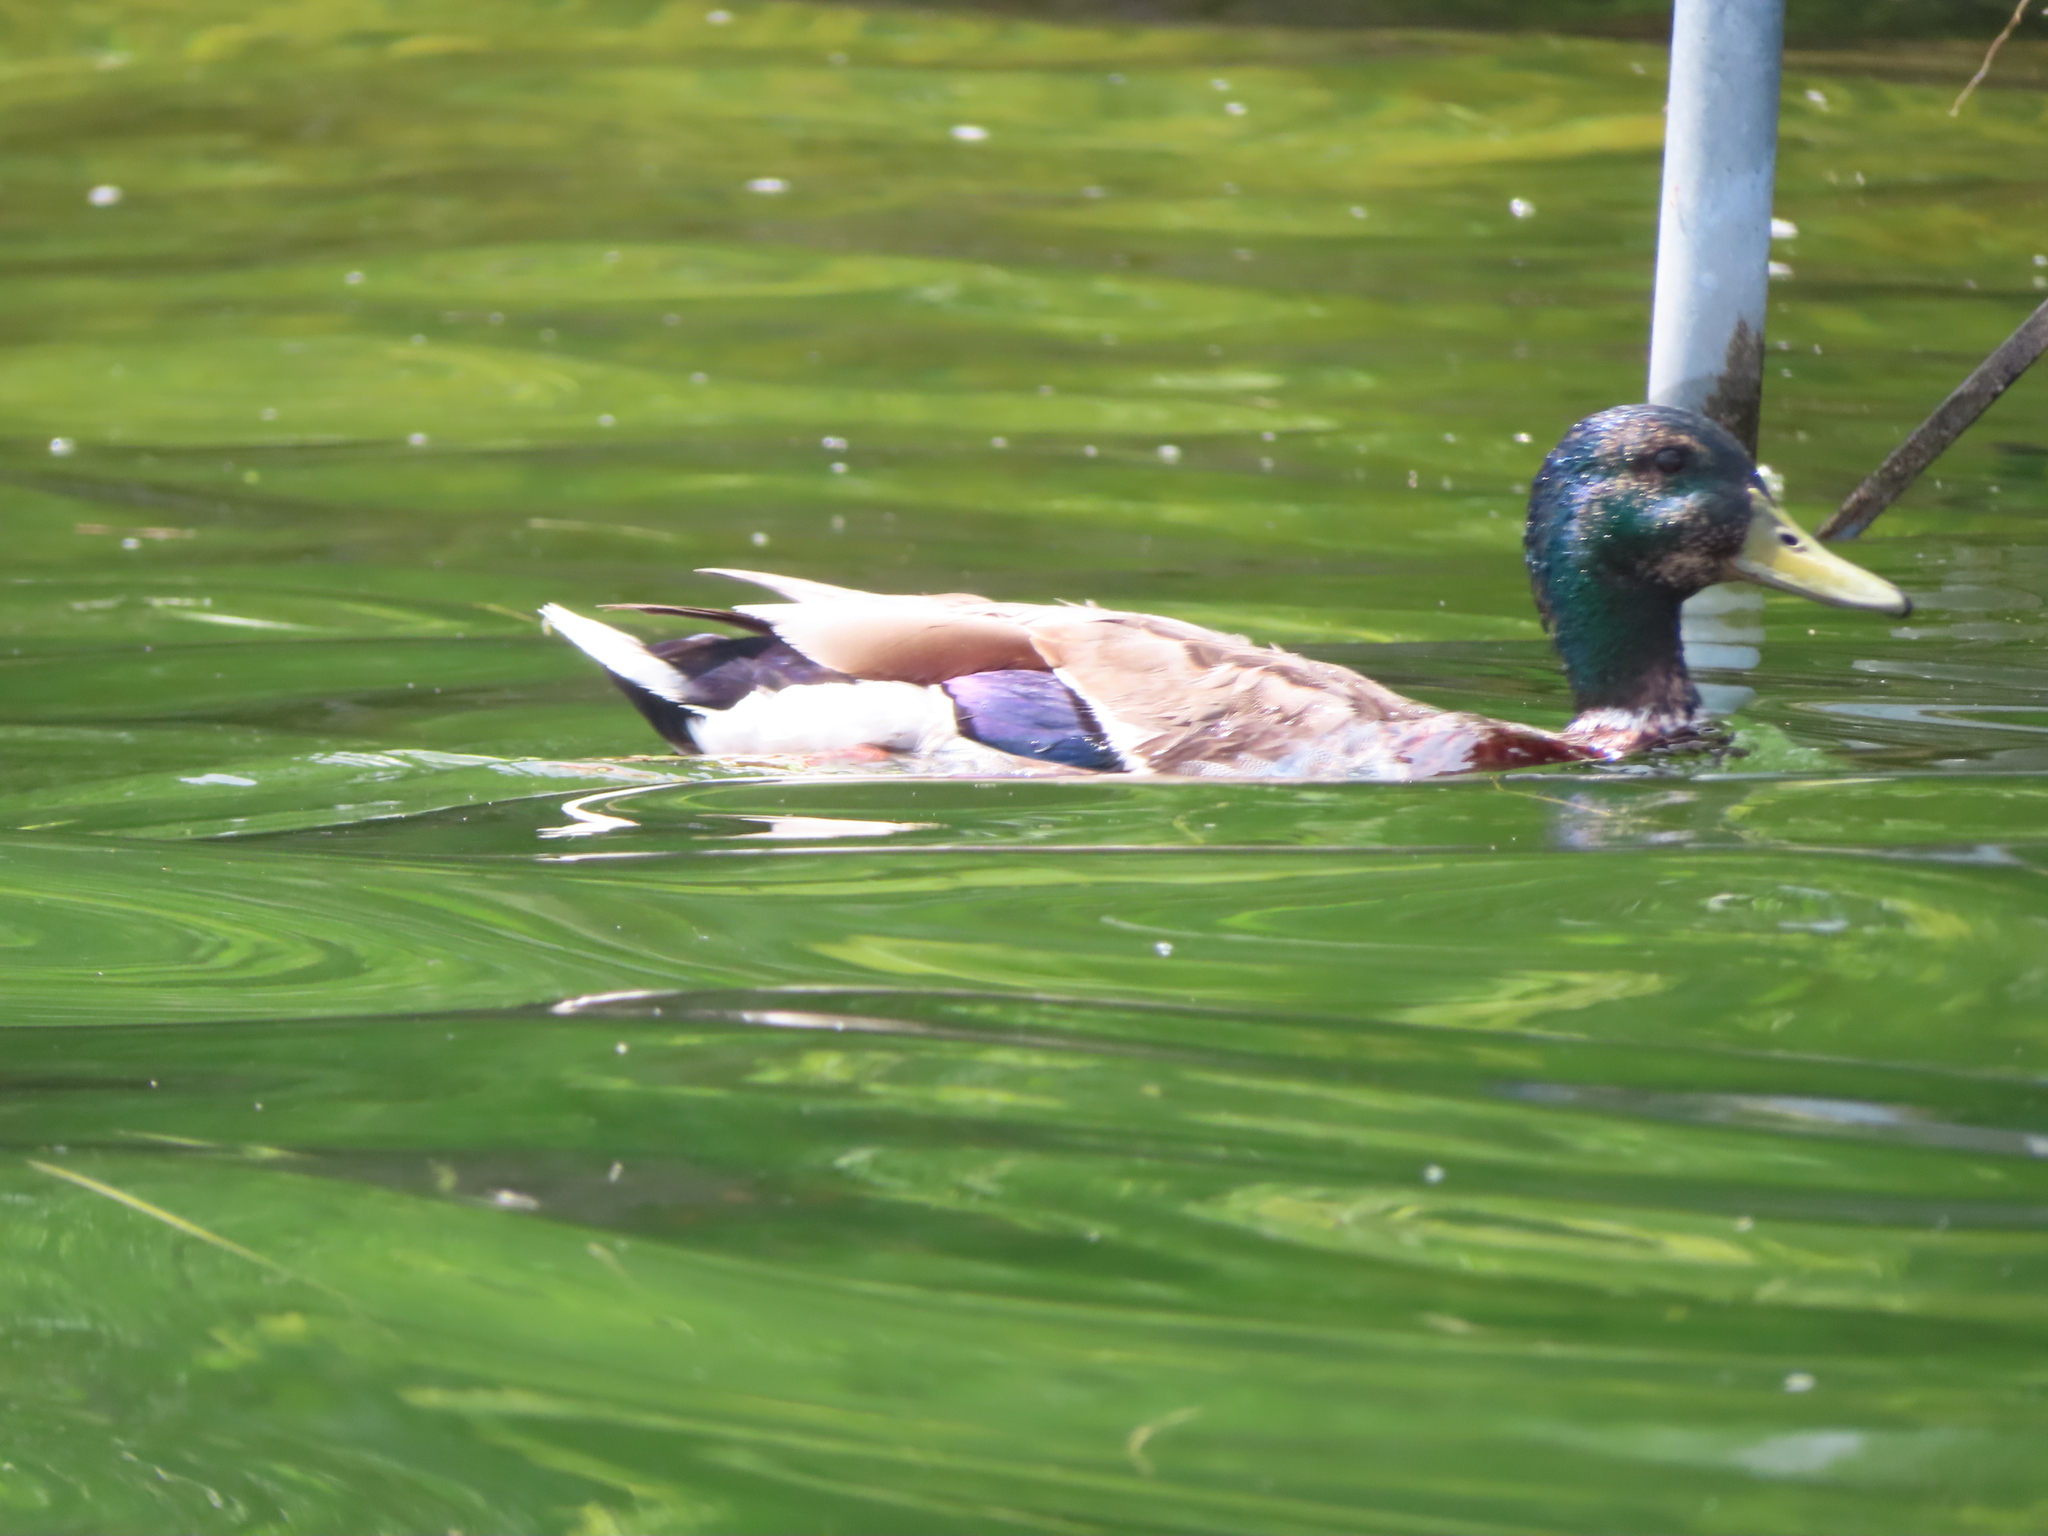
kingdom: Animalia
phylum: Chordata
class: Aves
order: Anseriformes
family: Anatidae
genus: Anas
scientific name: Anas platyrhynchos
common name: Mallard
